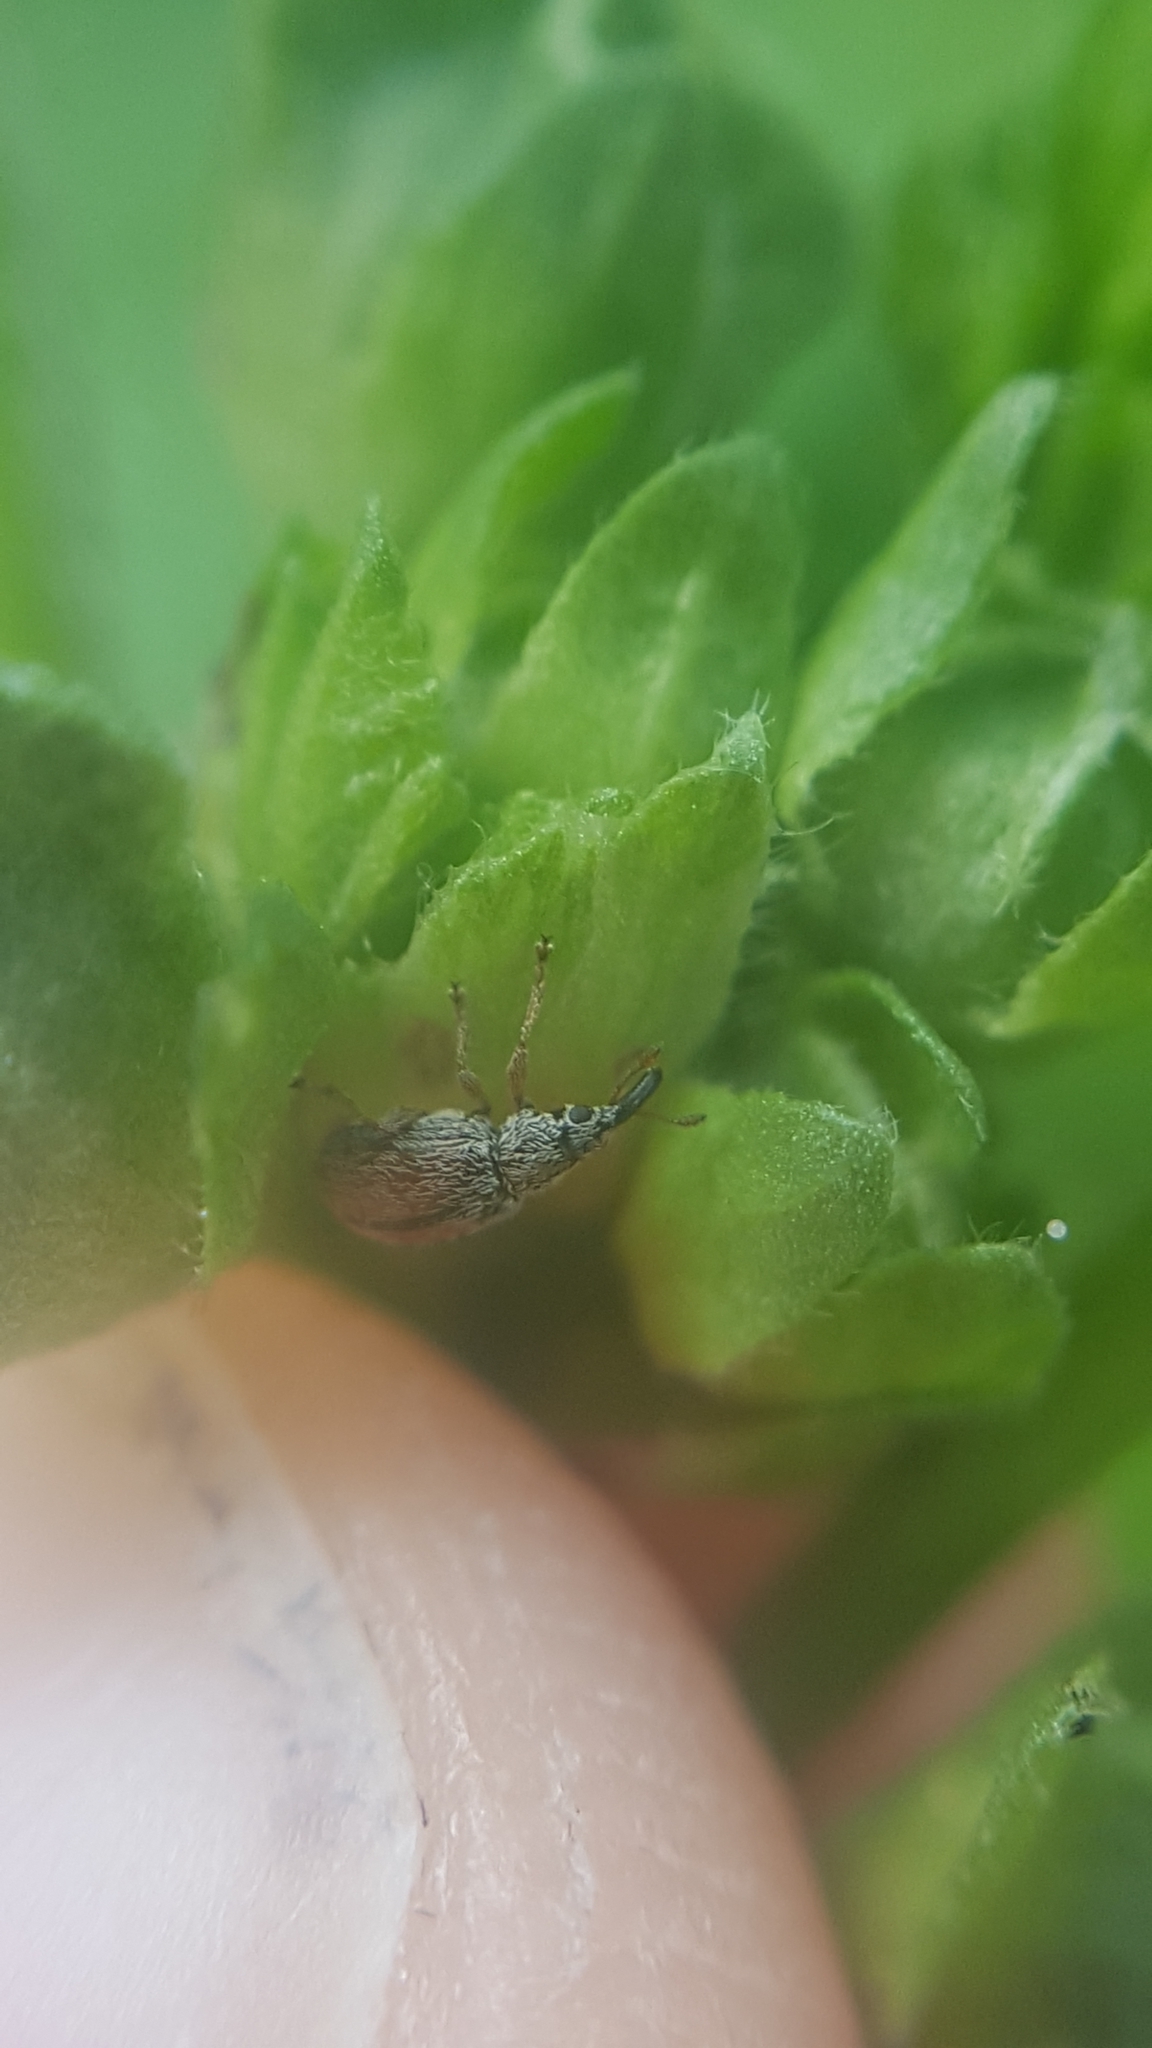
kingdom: Animalia
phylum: Arthropoda
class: Insecta
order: Coleoptera
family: Apionidae
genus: Malvapion
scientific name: Malvapion malvae
